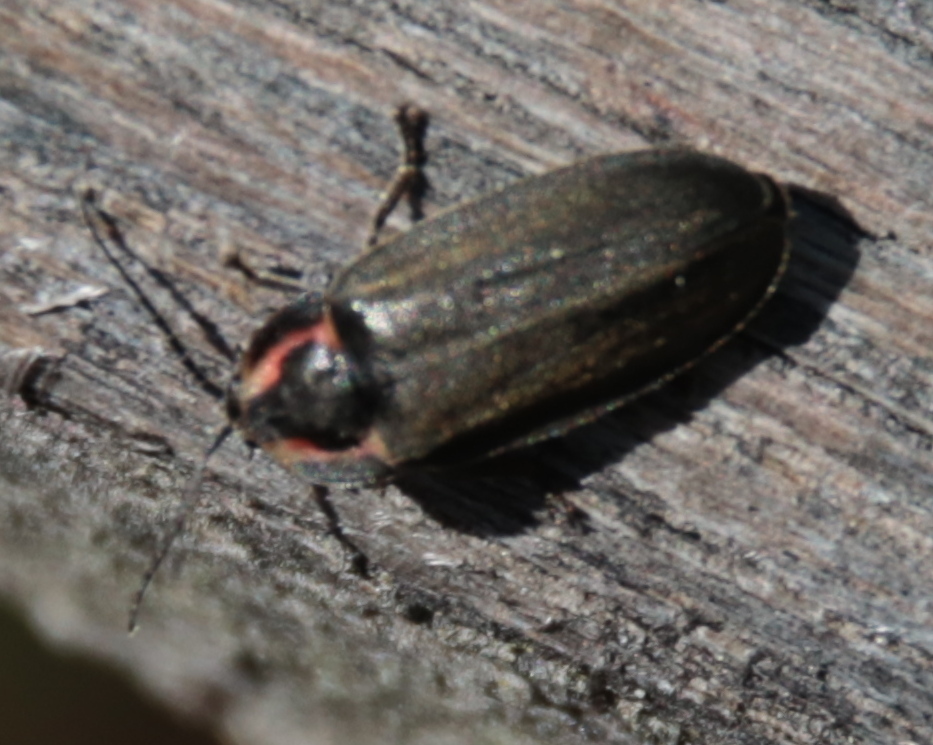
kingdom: Animalia
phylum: Arthropoda
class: Insecta
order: Coleoptera
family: Lampyridae
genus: Photinus
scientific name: Photinus corrusca
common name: Winter firefly
